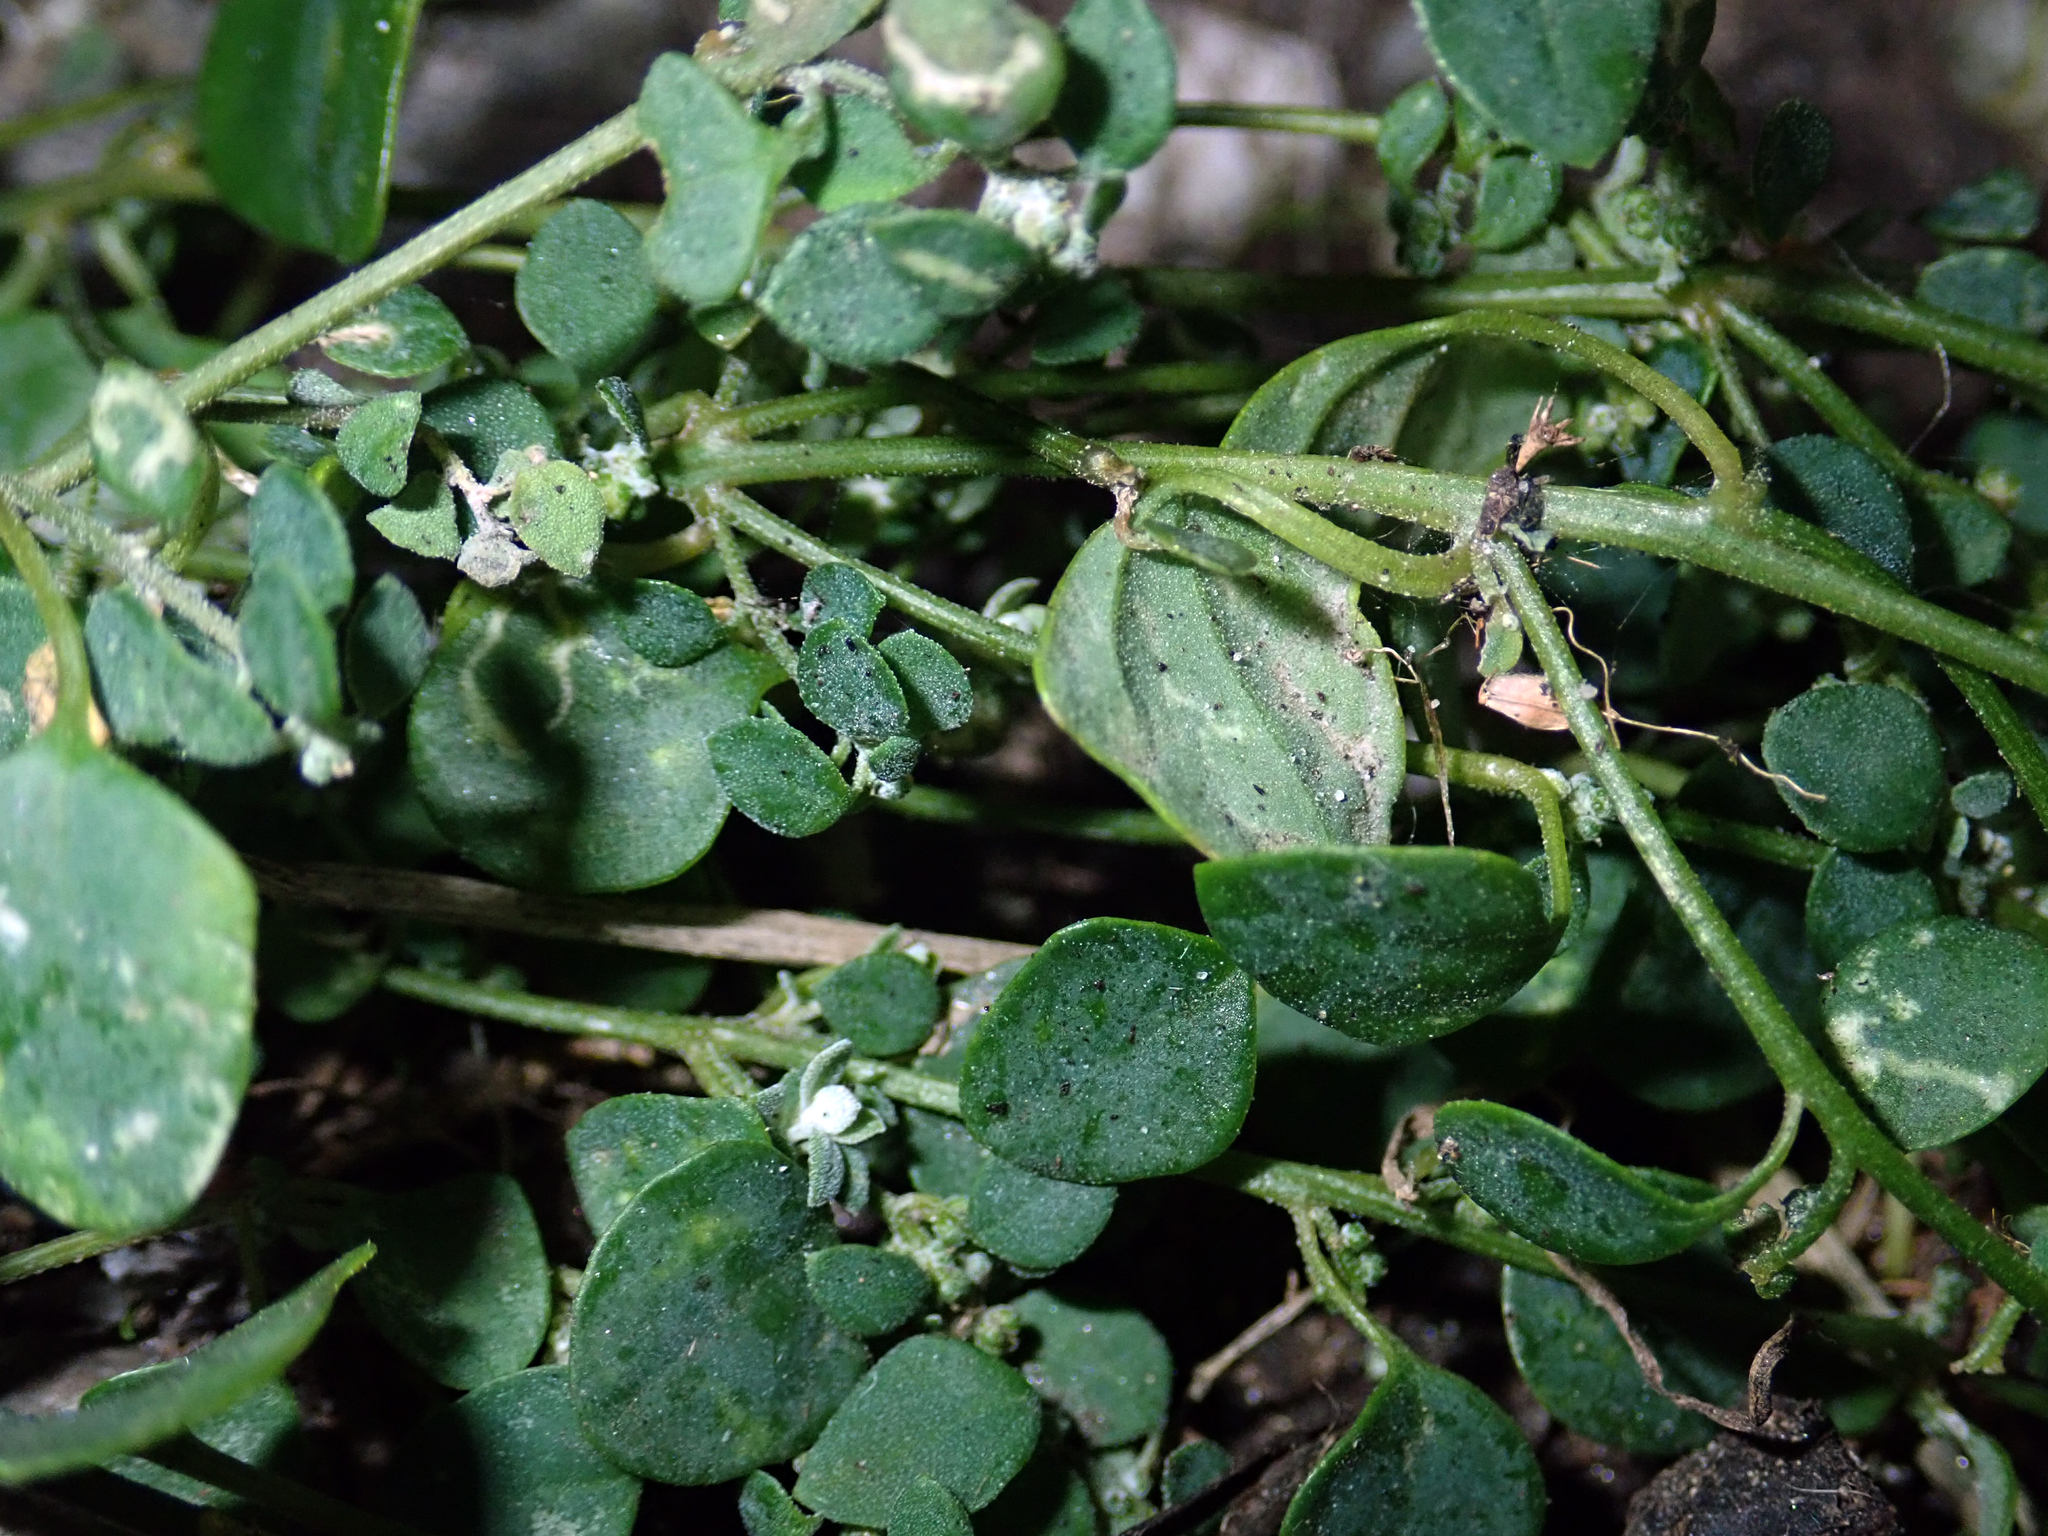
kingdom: Plantae
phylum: Tracheophyta
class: Magnoliopsida
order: Caryophyllales
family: Amaranthaceae
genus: Chenopodium
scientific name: Chenopodium trigonon
